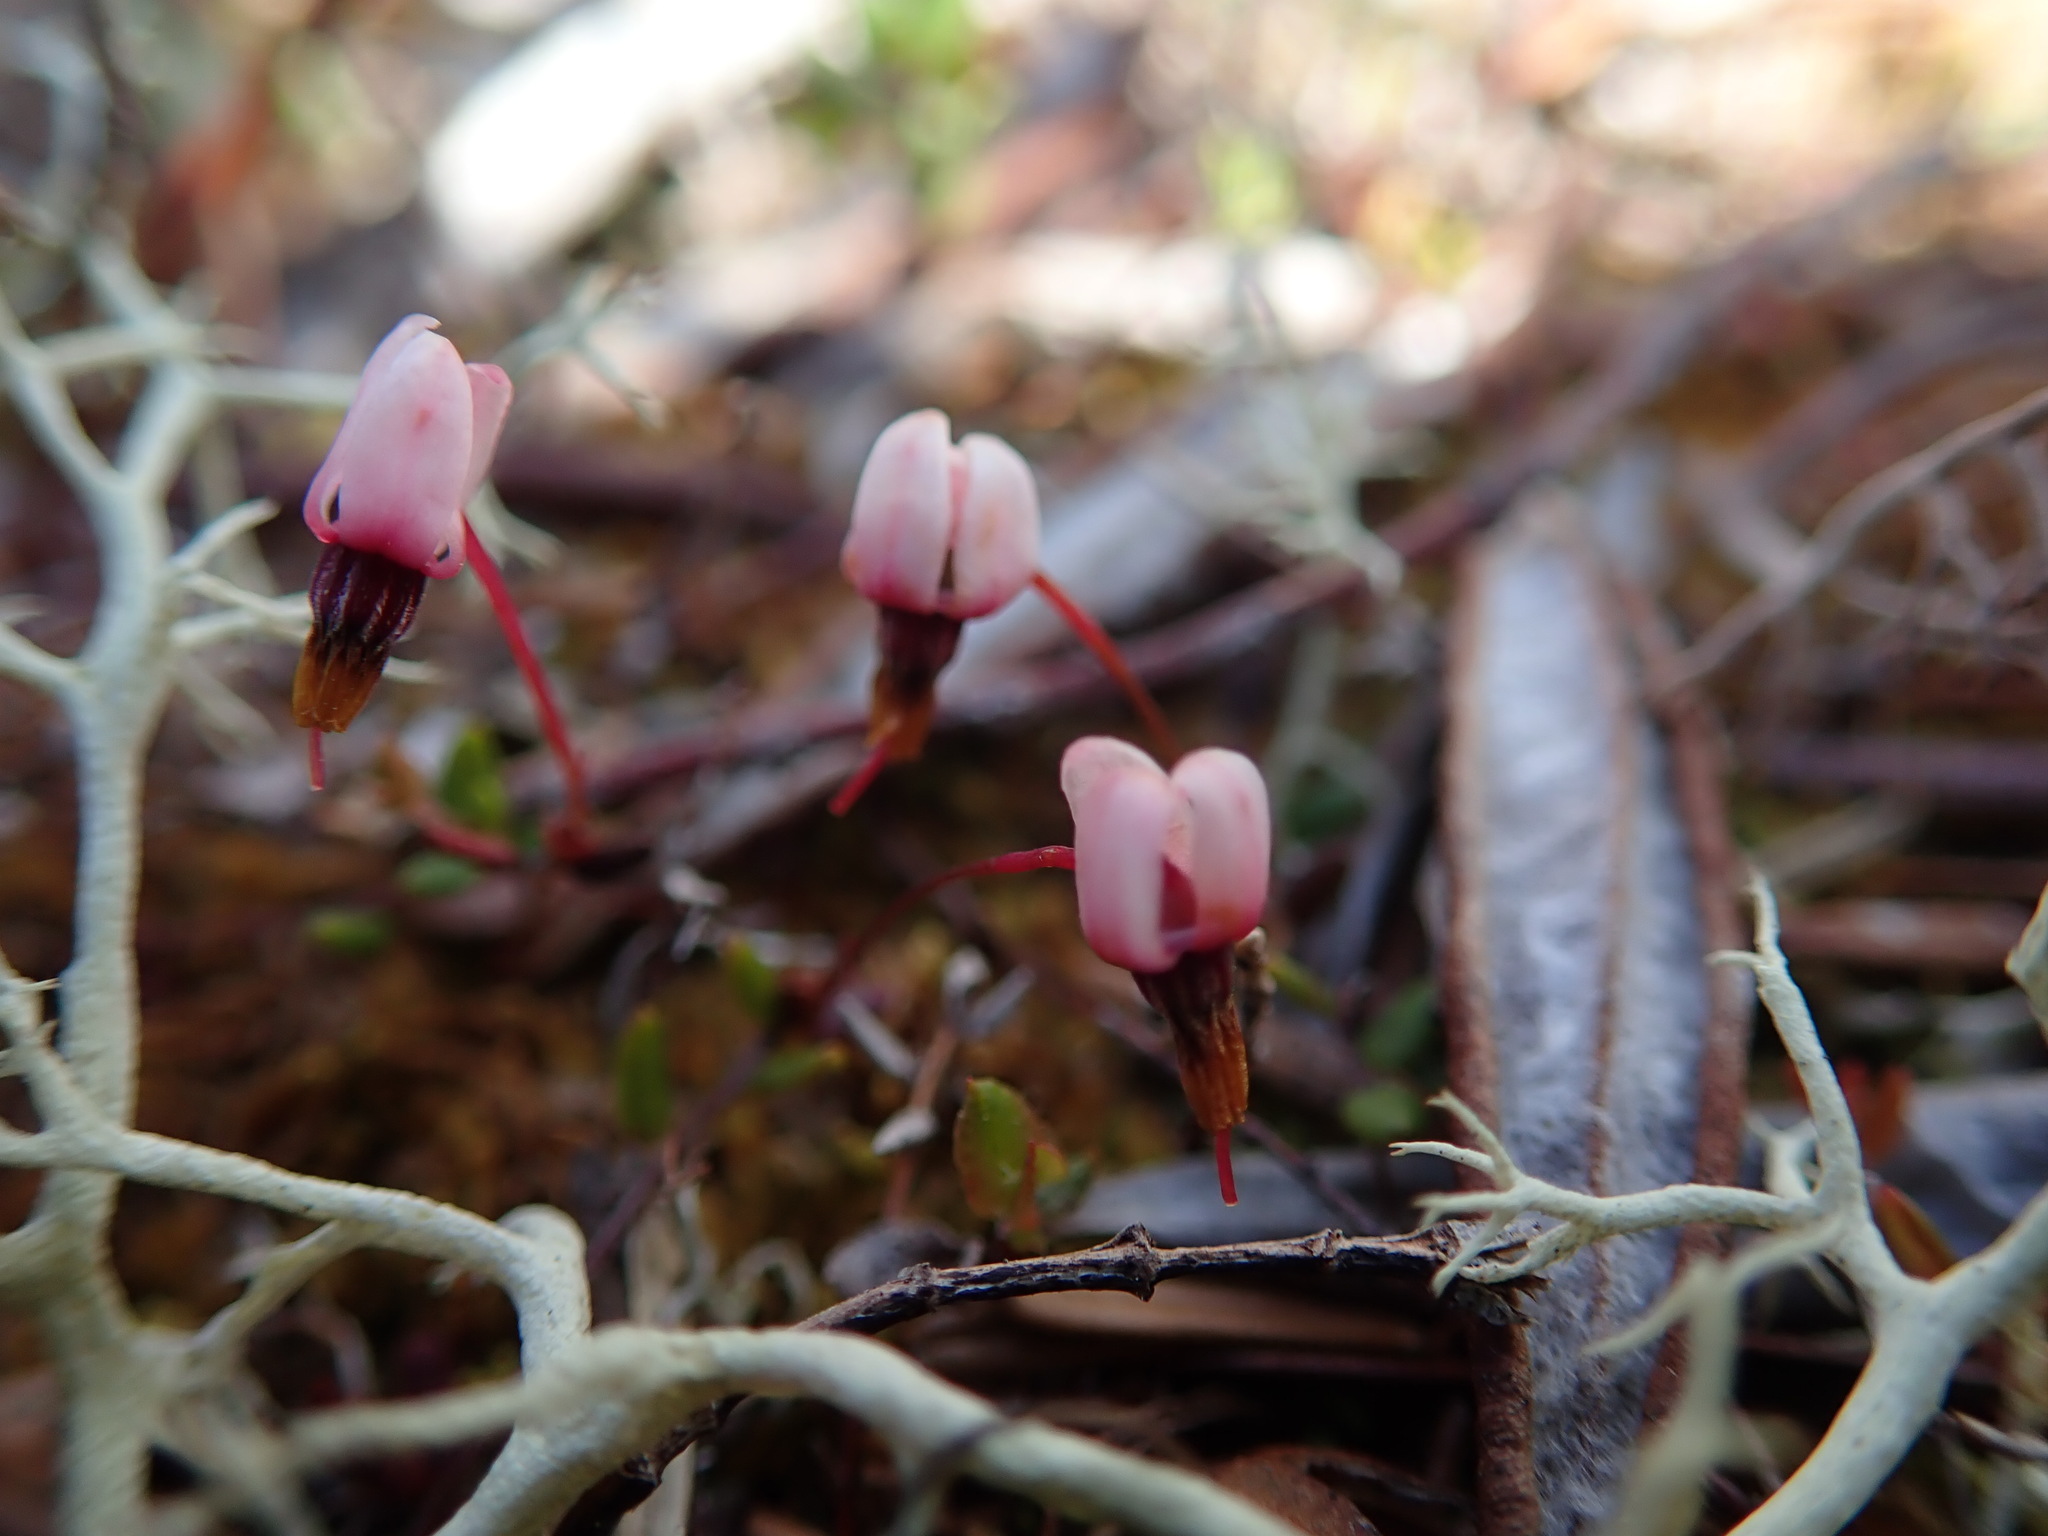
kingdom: Plantae
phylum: Tracheophyta
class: Magnoliopsida
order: Ericales
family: Ericaceae
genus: Vaccinium
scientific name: Vaccinium oxycoccos
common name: Cranberry
